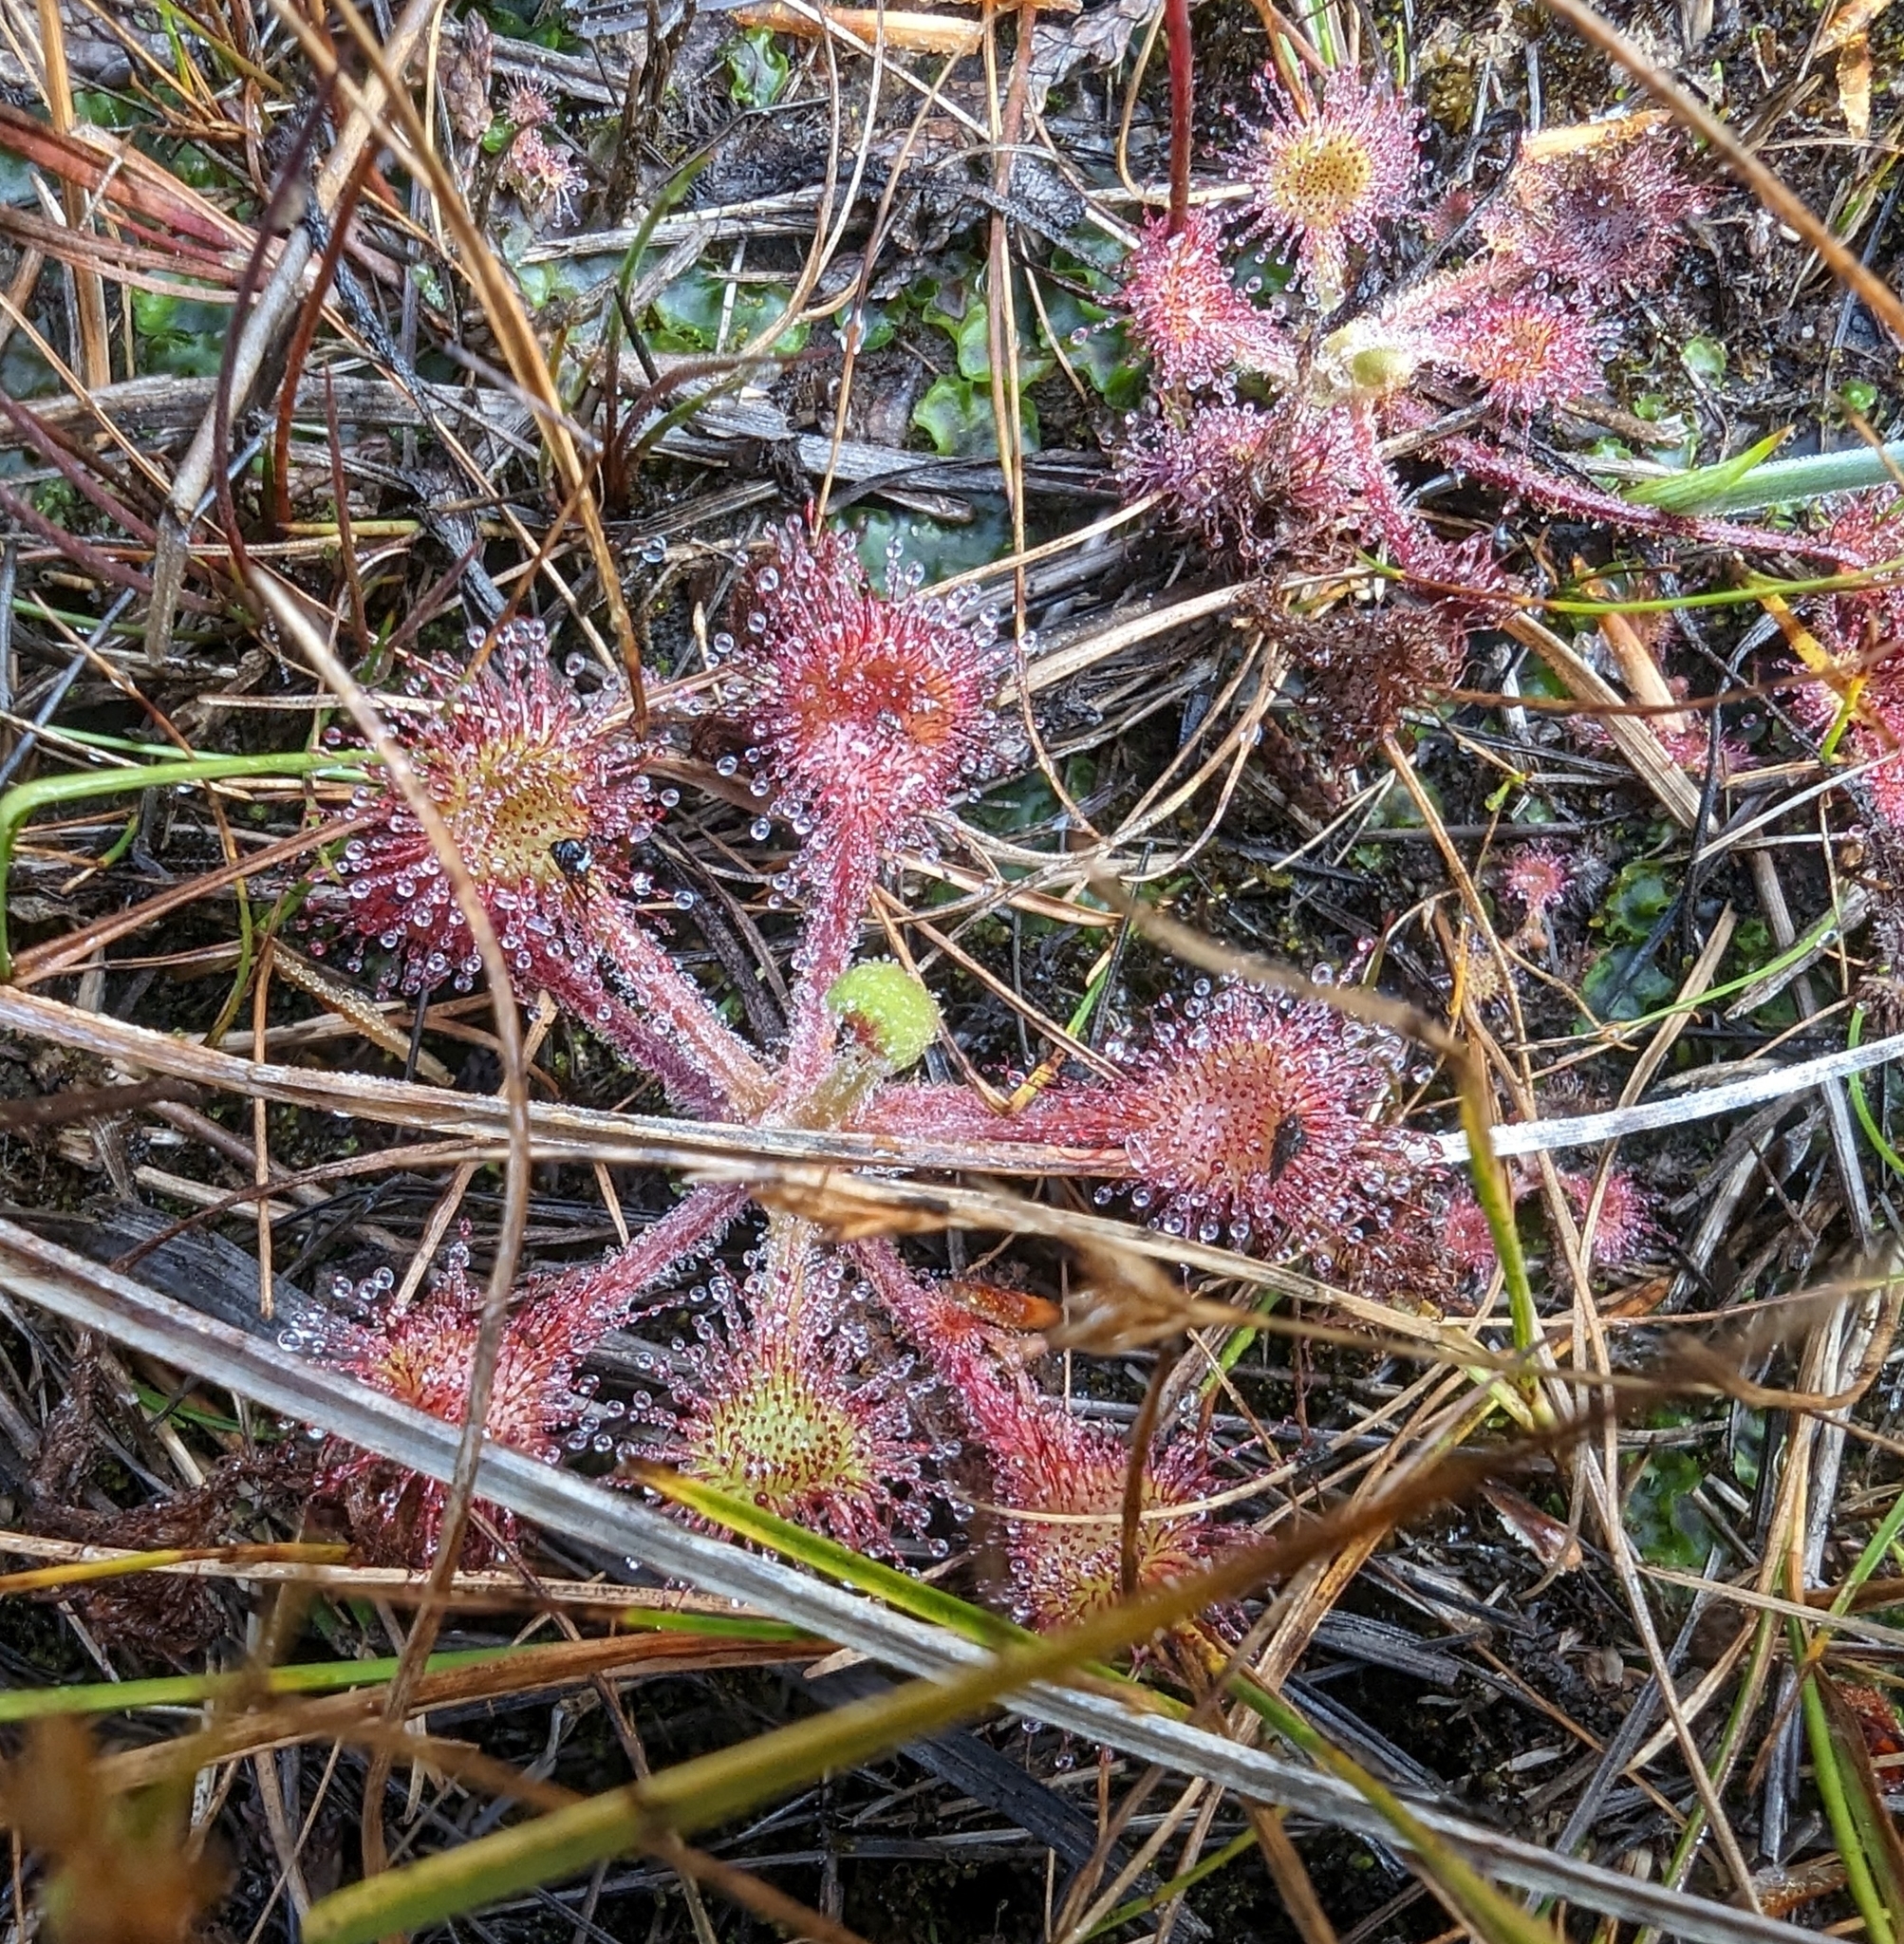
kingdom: Plantae
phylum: Tracheophyta
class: Magnoliopsida
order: Caryophyllales
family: Droseraceae
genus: Drosera
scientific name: Drosera rotundifolia
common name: Round-leaved sundew
